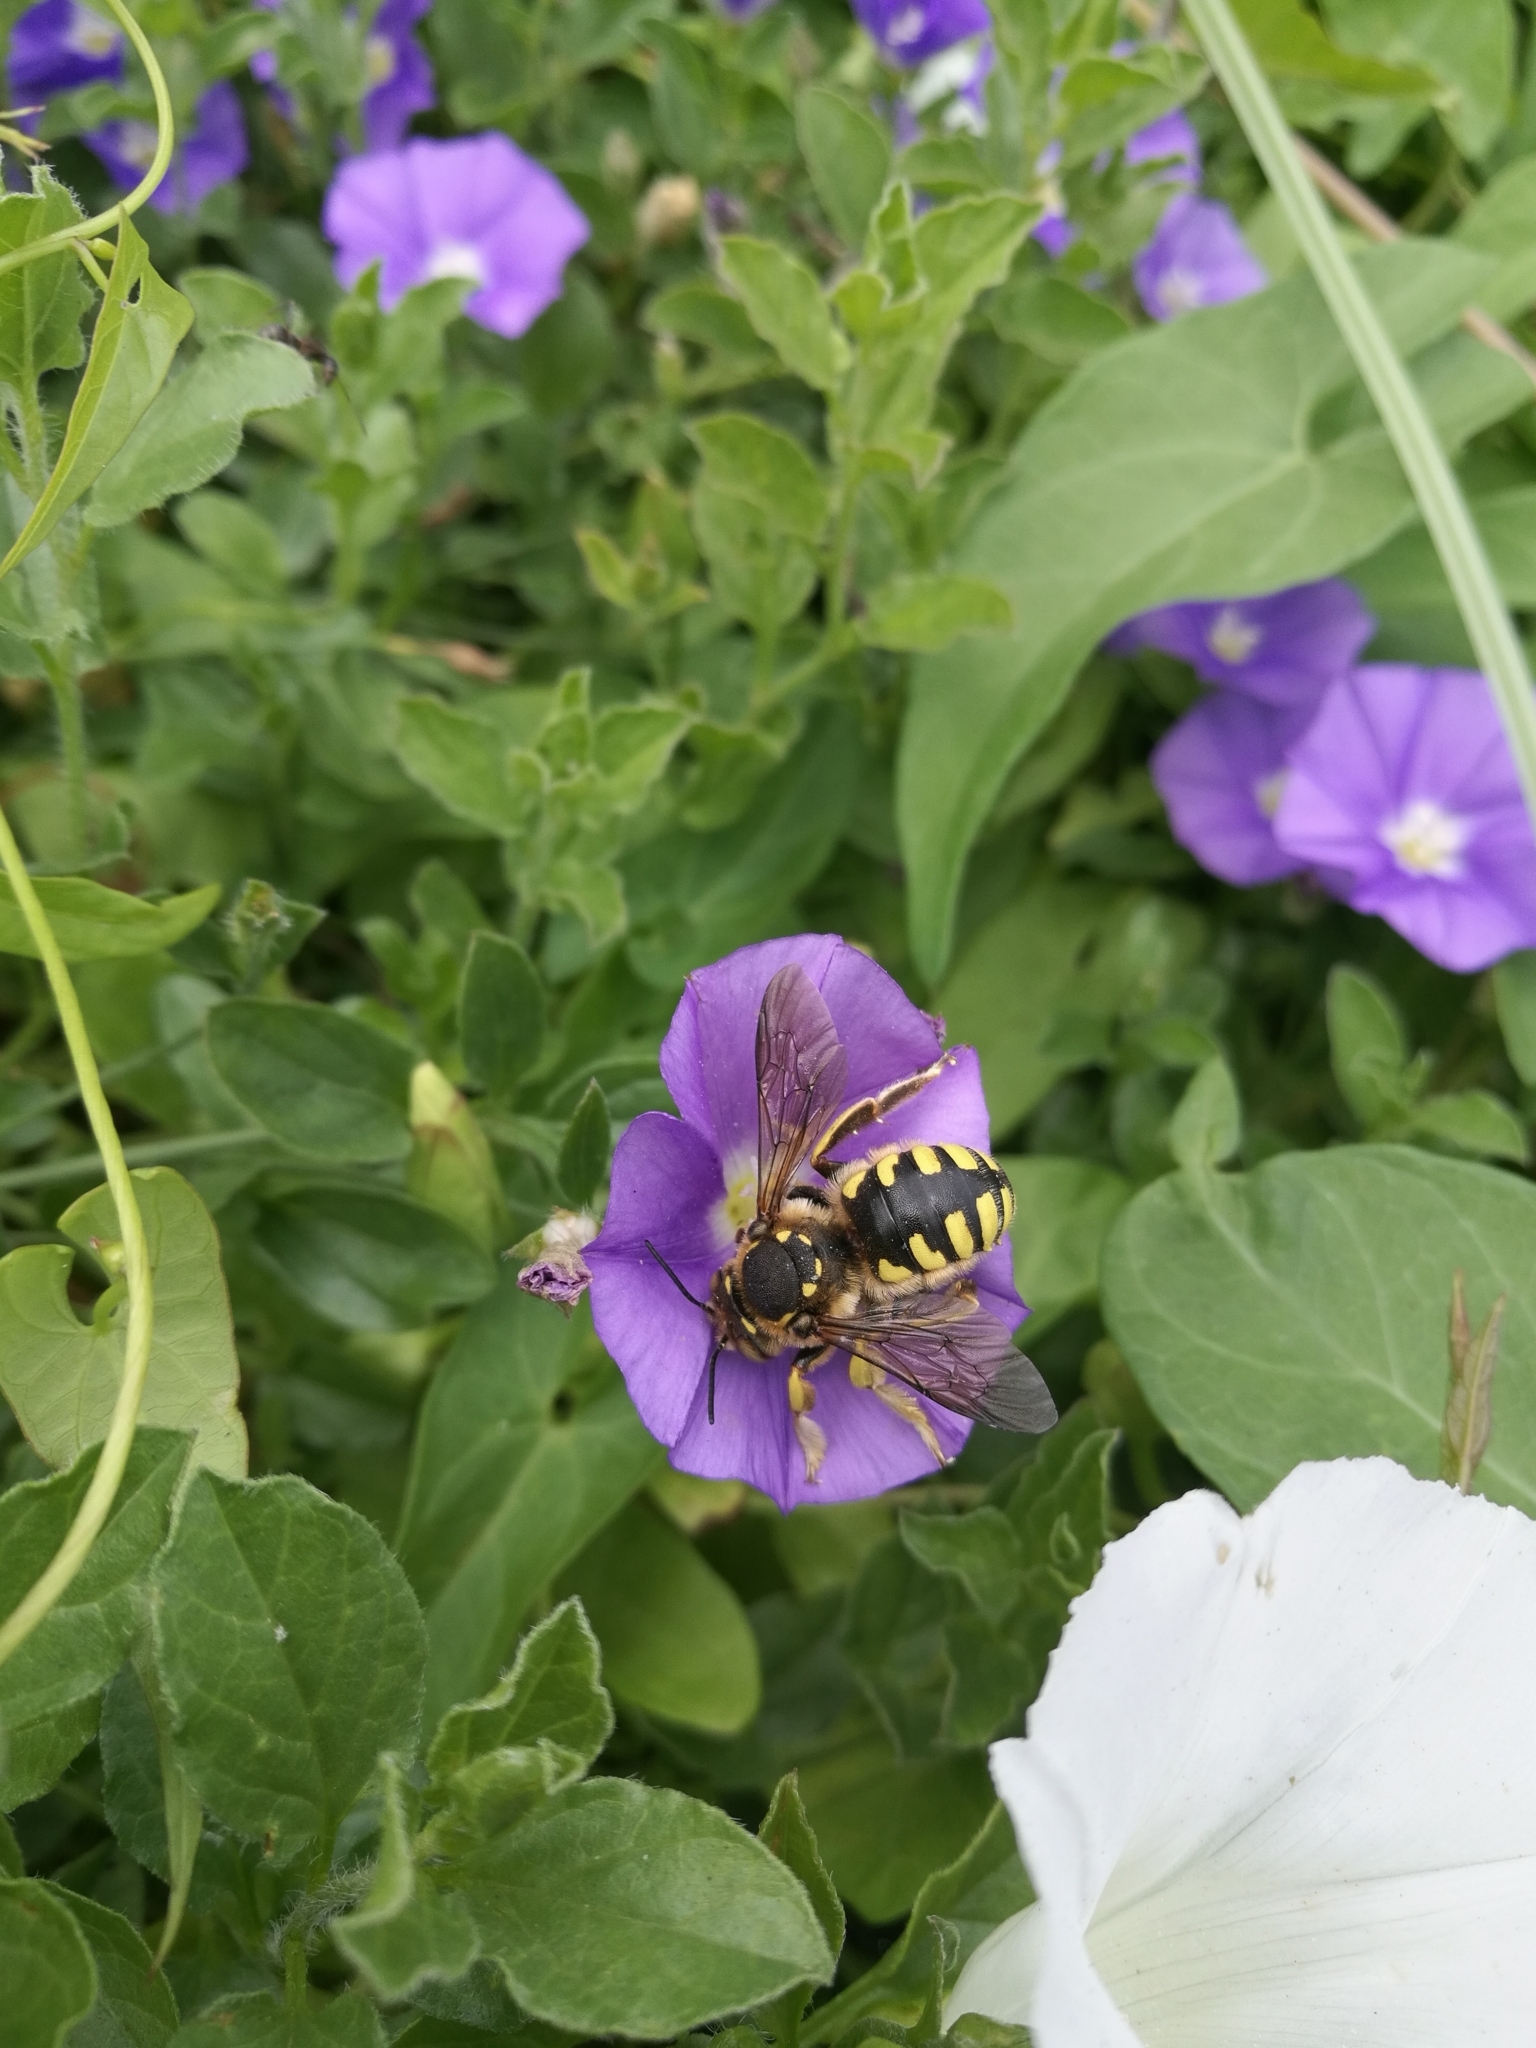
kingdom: Animalia
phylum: Arthropoda
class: Insecta
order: Hymenoptera
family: Megachilidae
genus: Anthidium
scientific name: Anthidium florentinum
